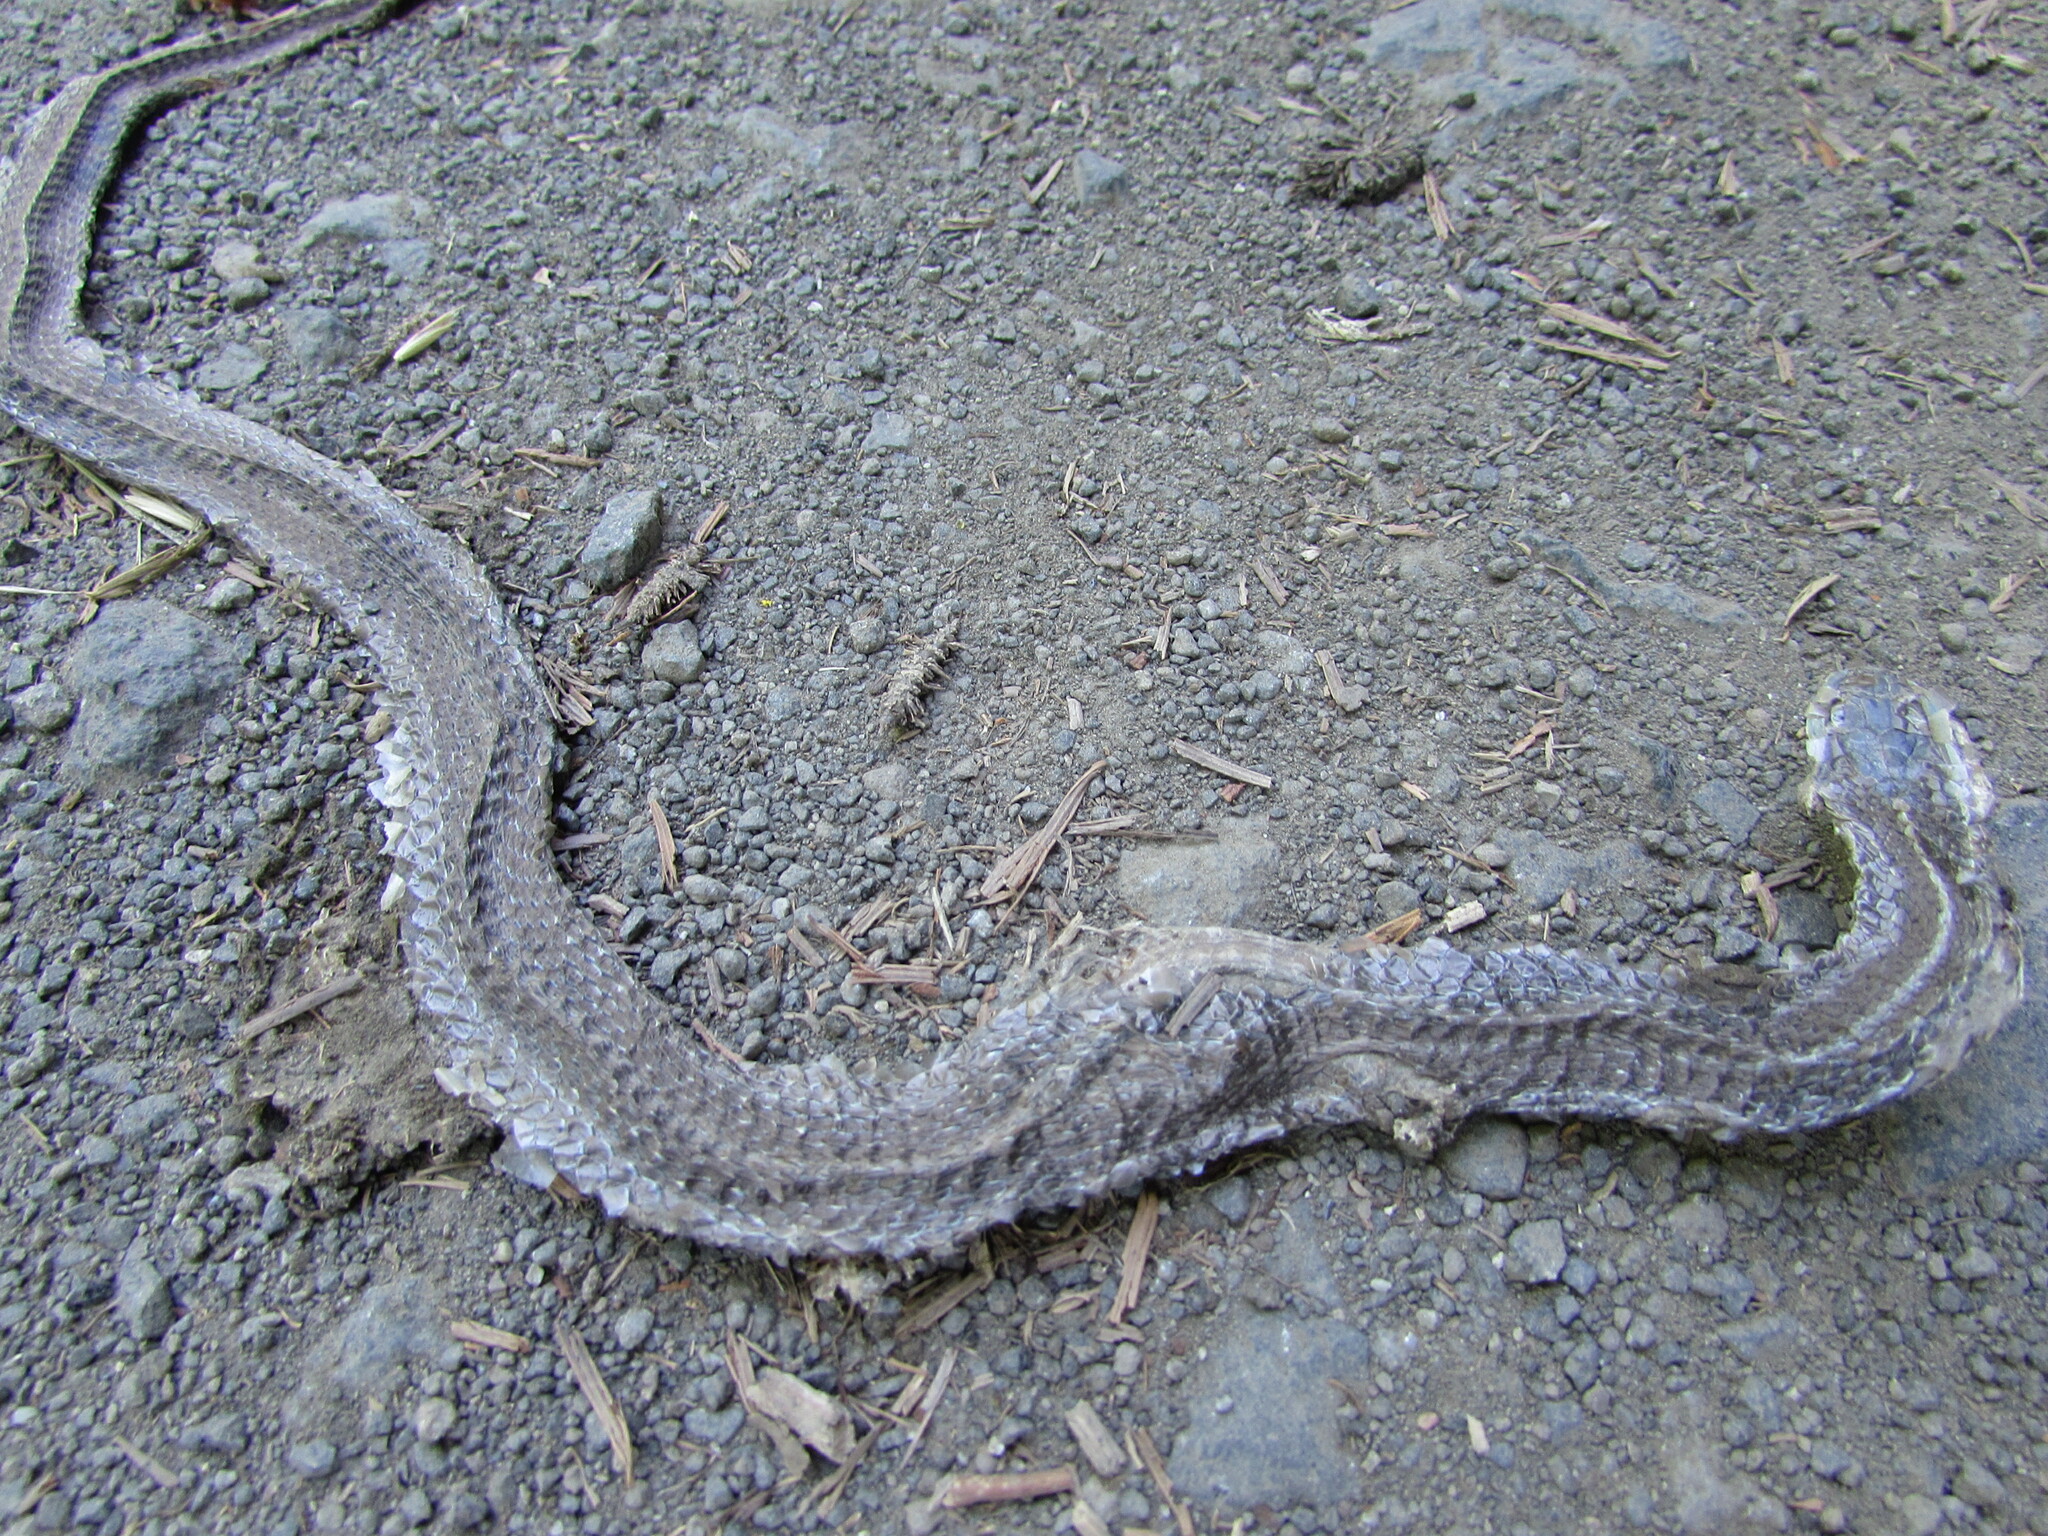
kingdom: Animalia
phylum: Chordata
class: Squamata
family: Colubridae
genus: Thamnophis
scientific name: Thamnophis ordinoides
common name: Northwestern garter snake
